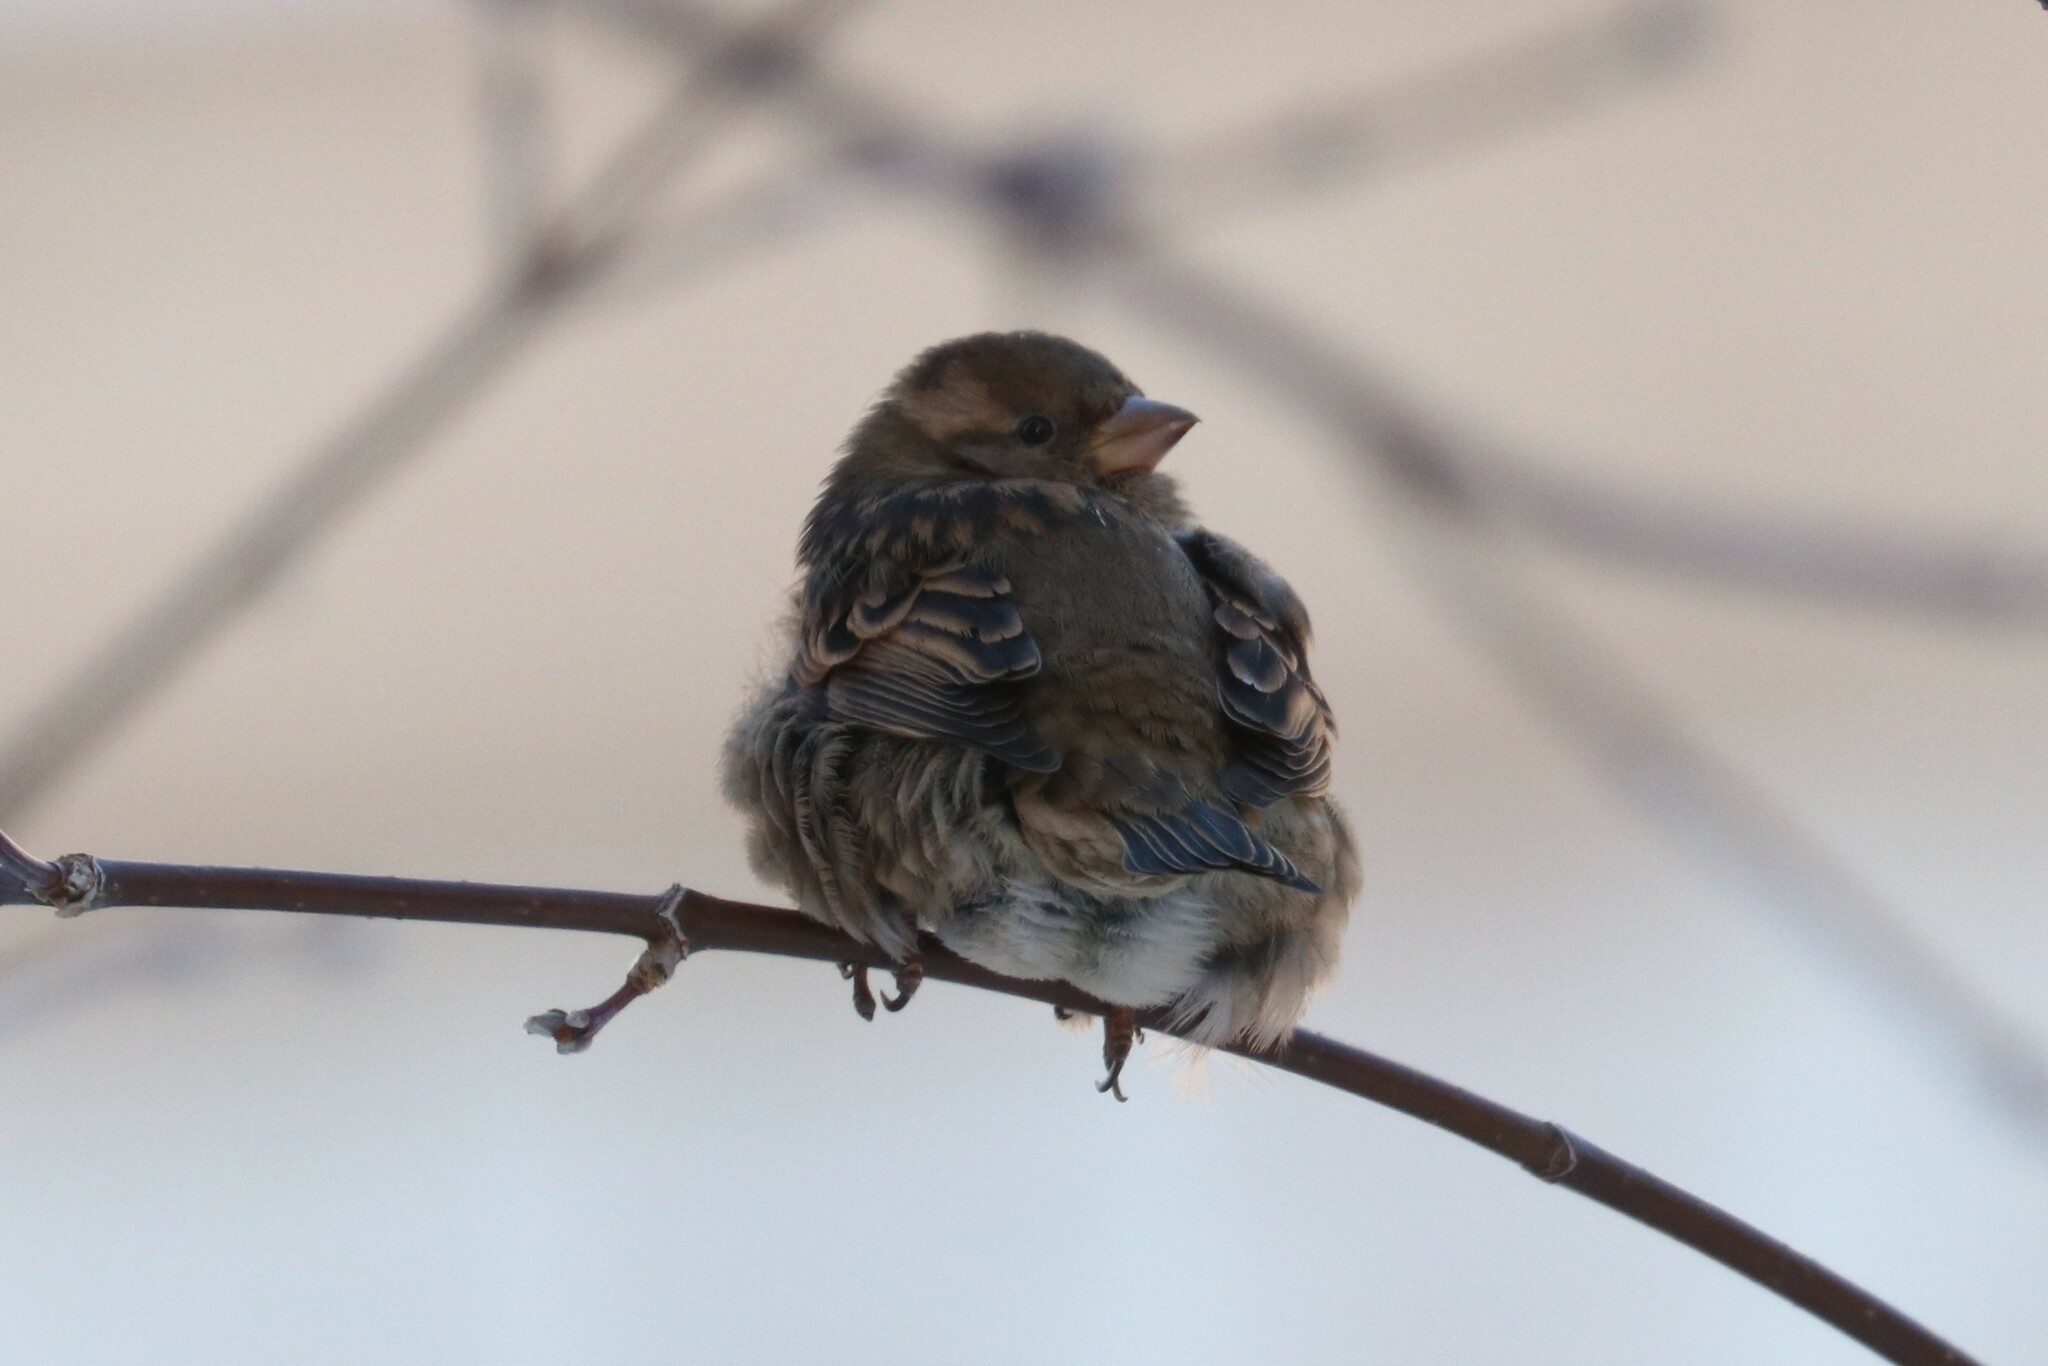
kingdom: Animalia
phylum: Chordata
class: Aves
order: Passeriformes
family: Passeridae
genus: Passer
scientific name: Passer domesticus
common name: House sparrow
